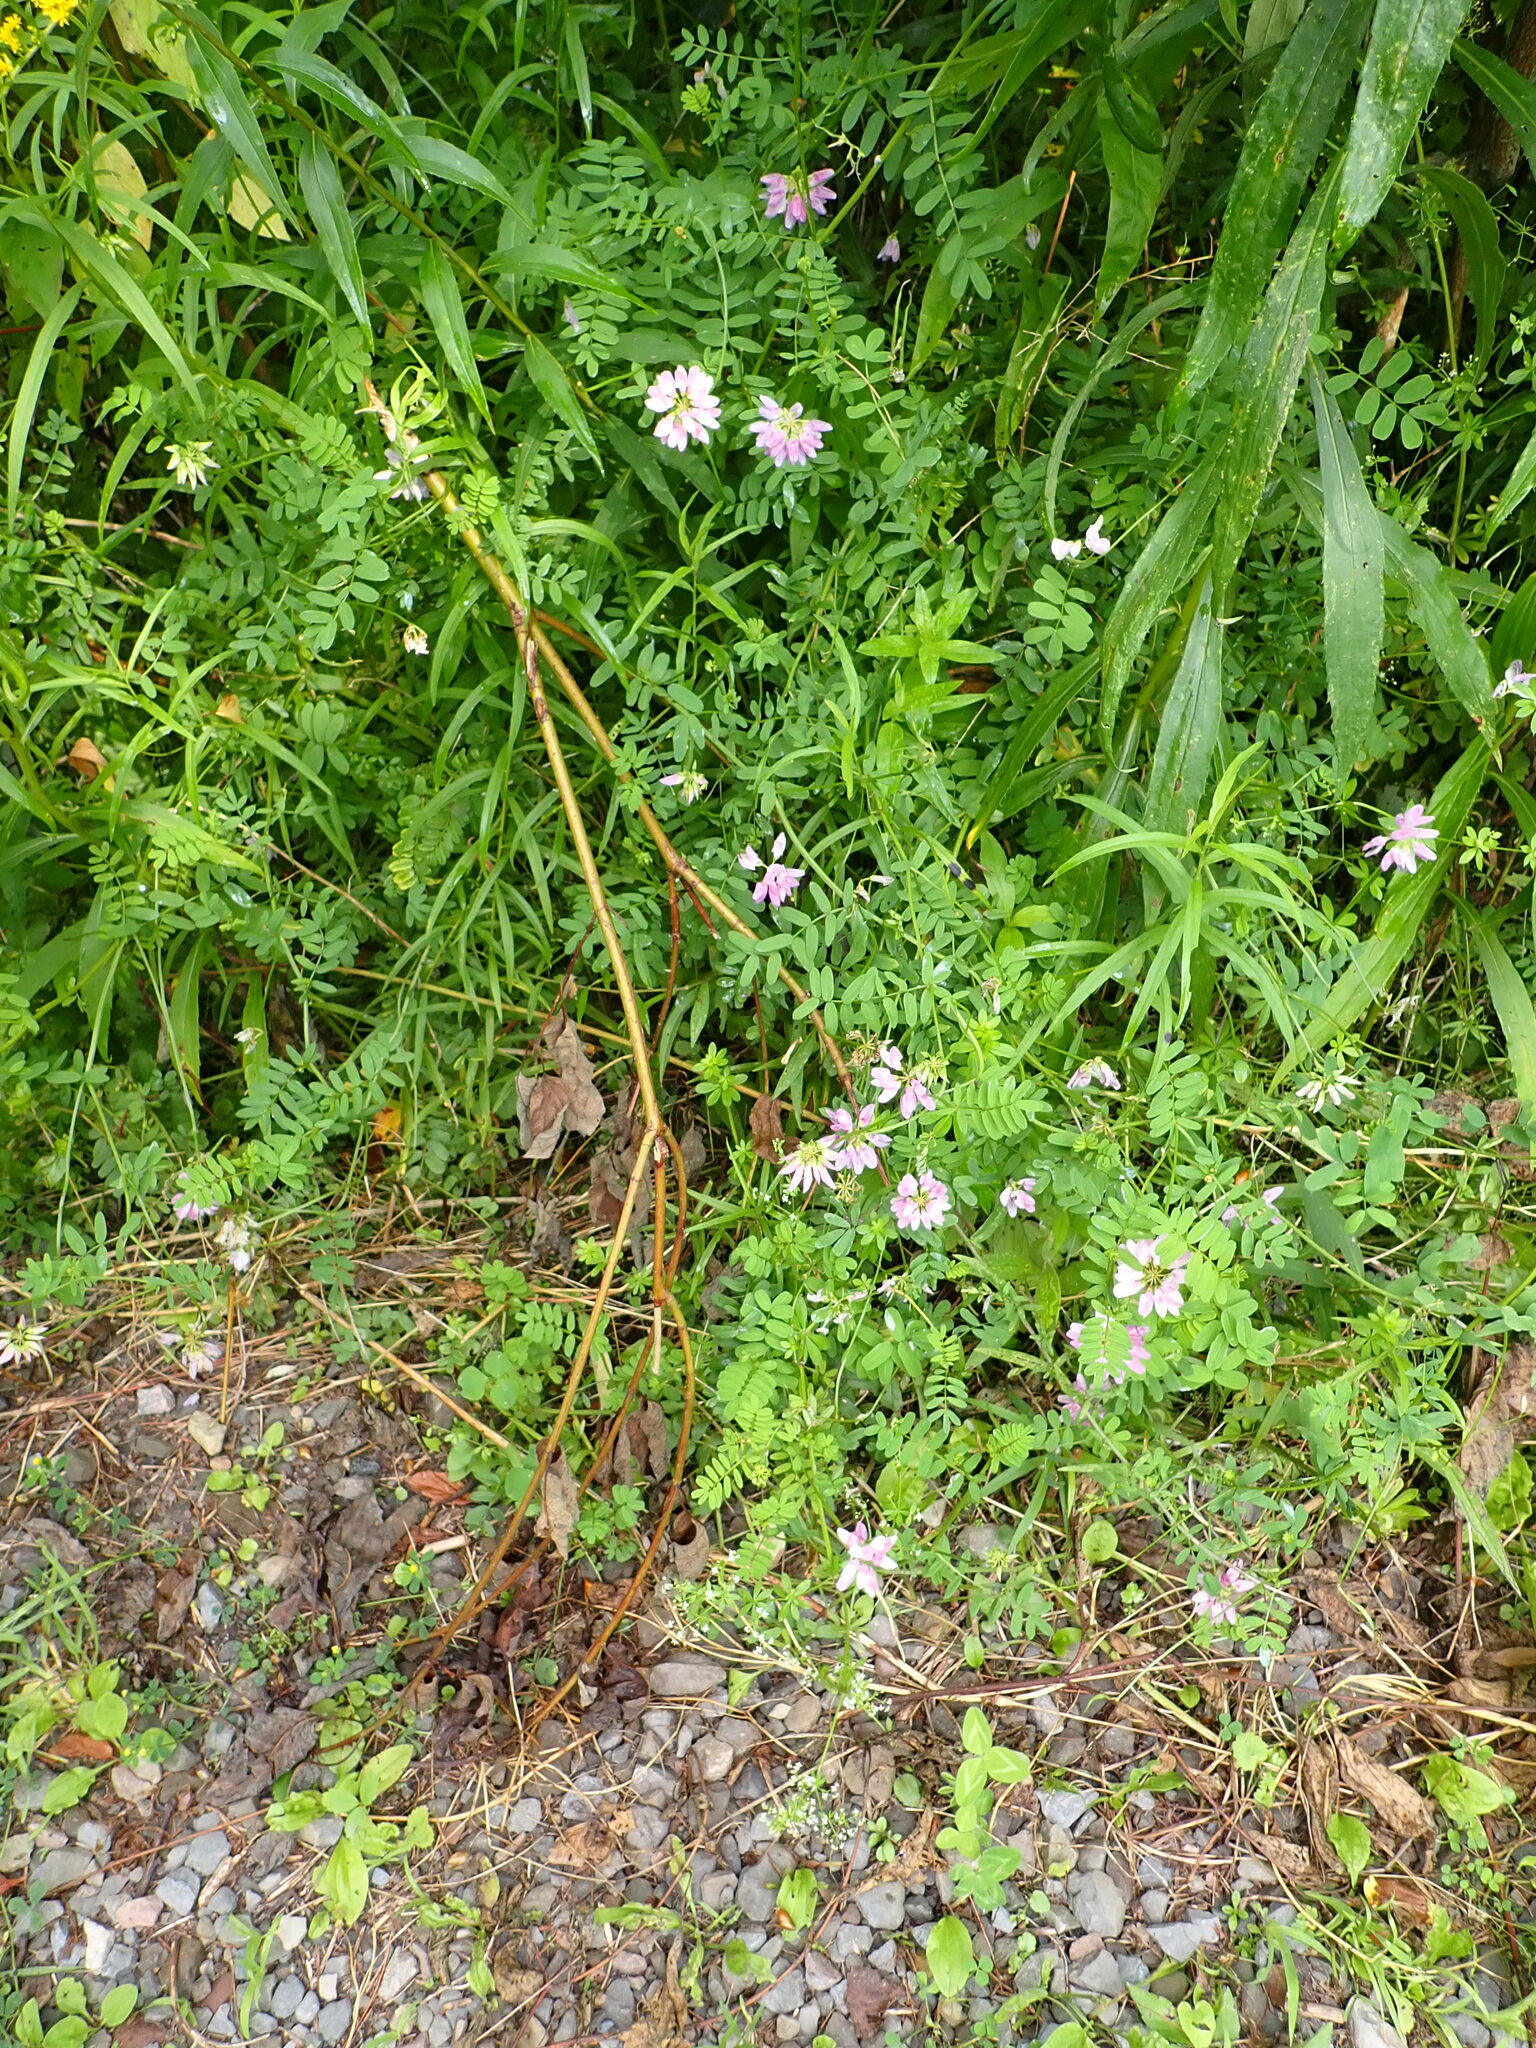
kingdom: Plantae
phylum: Tracheophyta
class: Magnoliopsida
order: Fabales
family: Fabaceae
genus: Coronilla
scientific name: Coronilla varia
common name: Crownvetch
